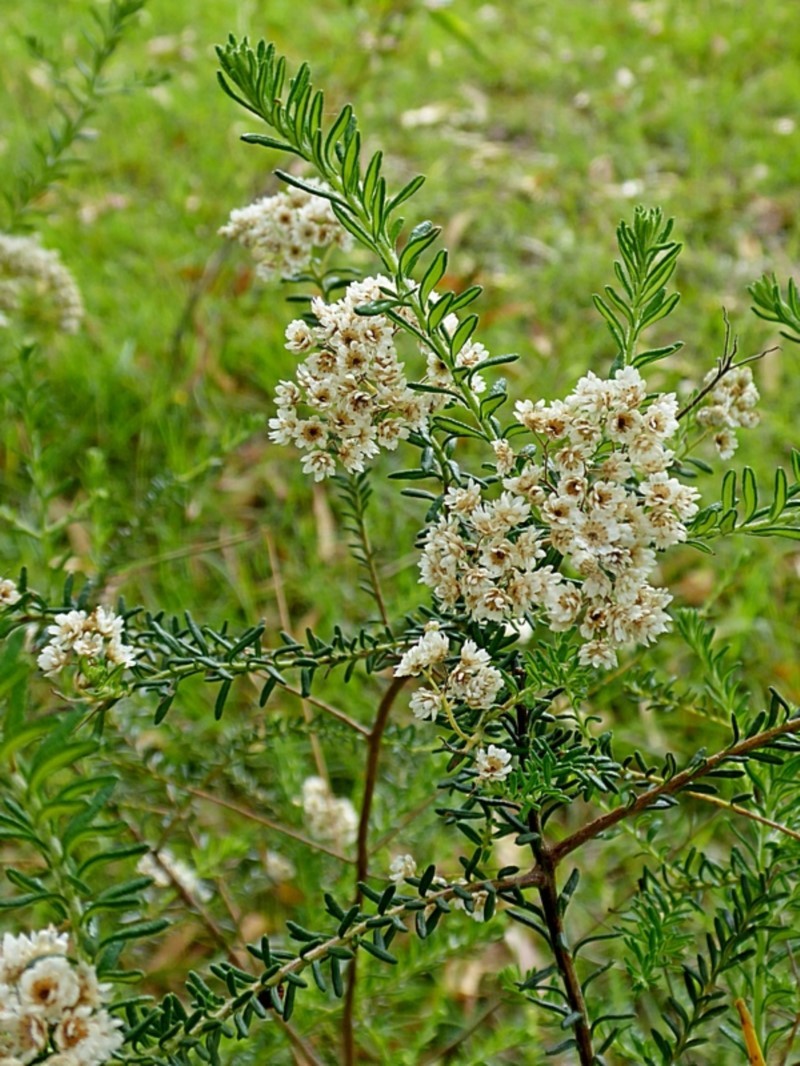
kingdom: Plantae
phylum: Tracheophyta
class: Magnoliopsida
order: Asterales
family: Asteraceae
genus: Ozothamnus
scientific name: Ozothamnus diosmifolius
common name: White-dogwood
